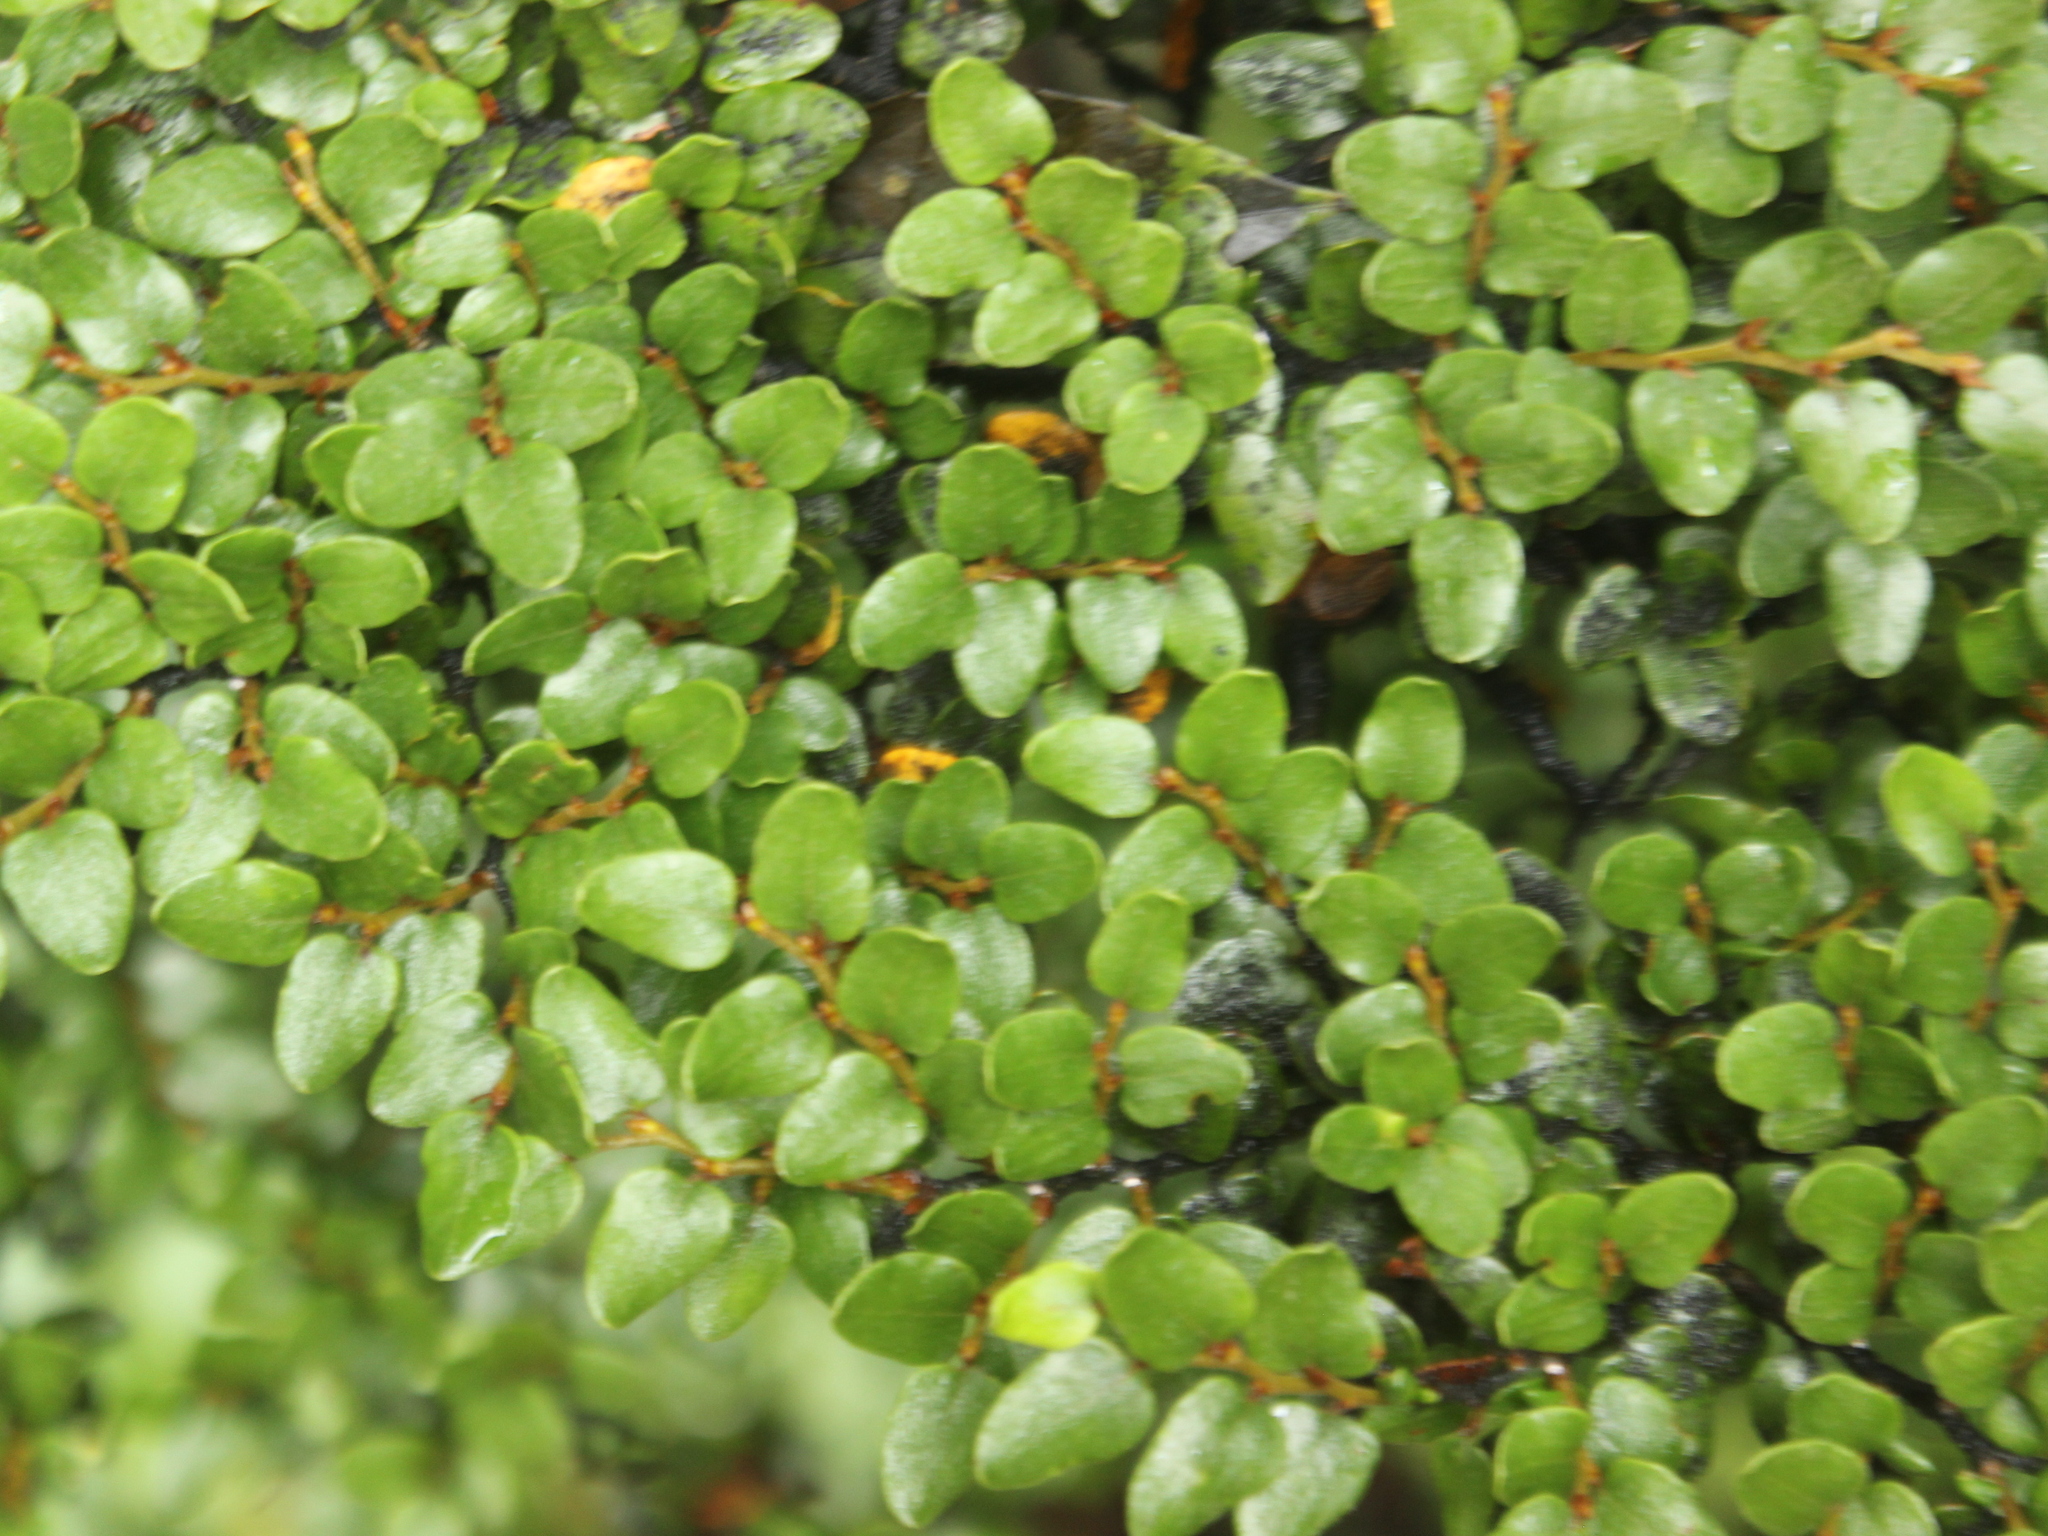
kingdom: Plantae
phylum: Tracheophyta
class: Magnoliopsida
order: Fagales
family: Nothofagaceae
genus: Nothofagus
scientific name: Nothofagus cliffortioides
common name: Mountain beech
